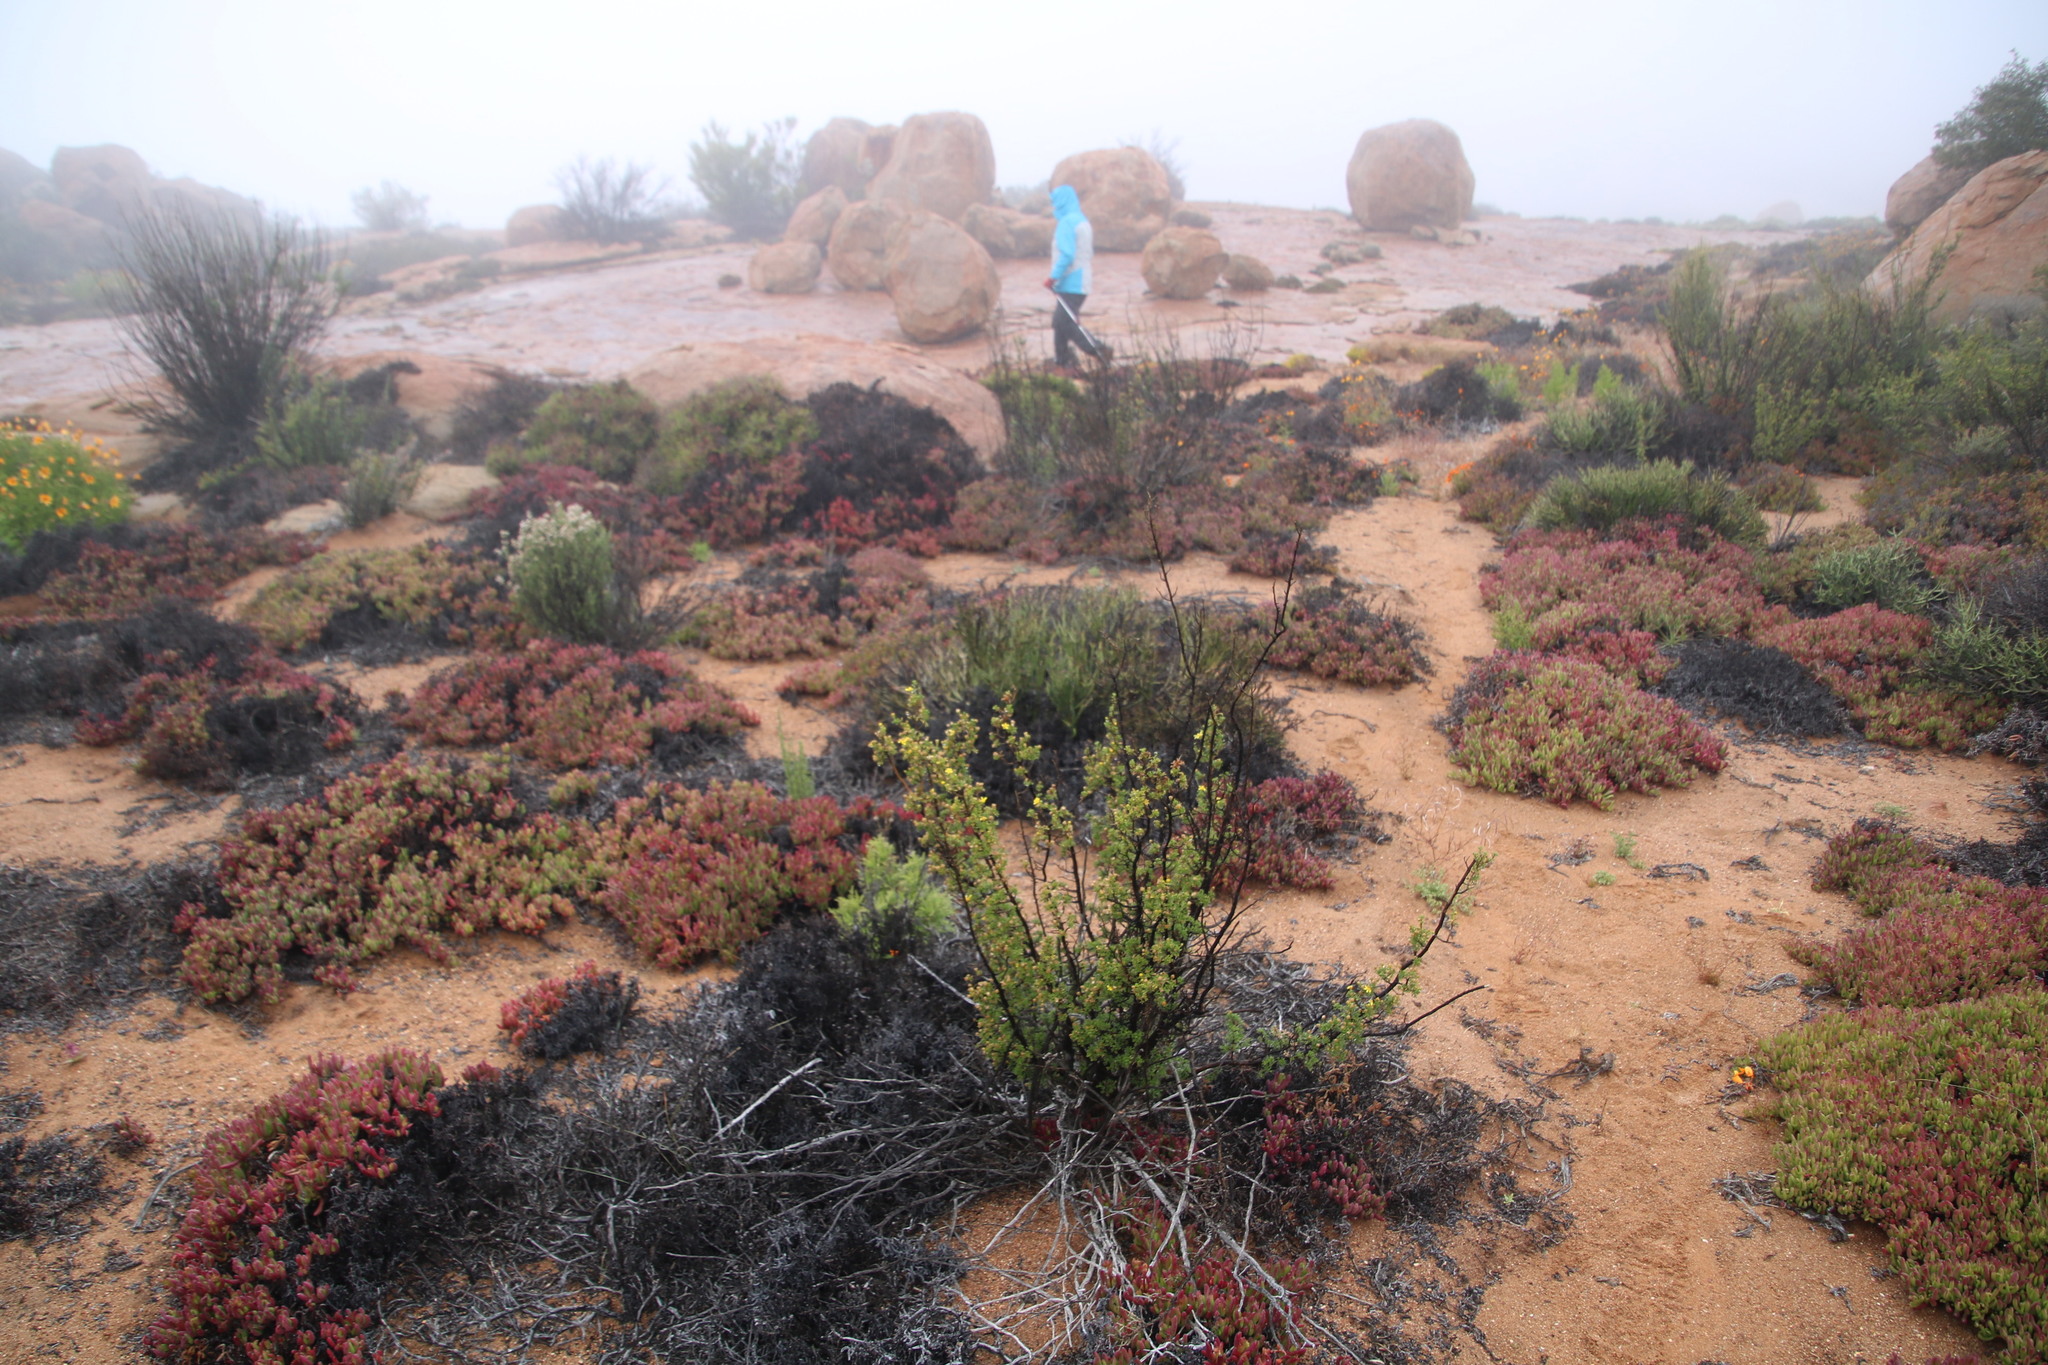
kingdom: Plantae
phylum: Tracheophyta
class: Magnoliopsida
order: Asterales
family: Asteraceae
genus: Euryops
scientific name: Euryops multifidus
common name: Hawk's eye
